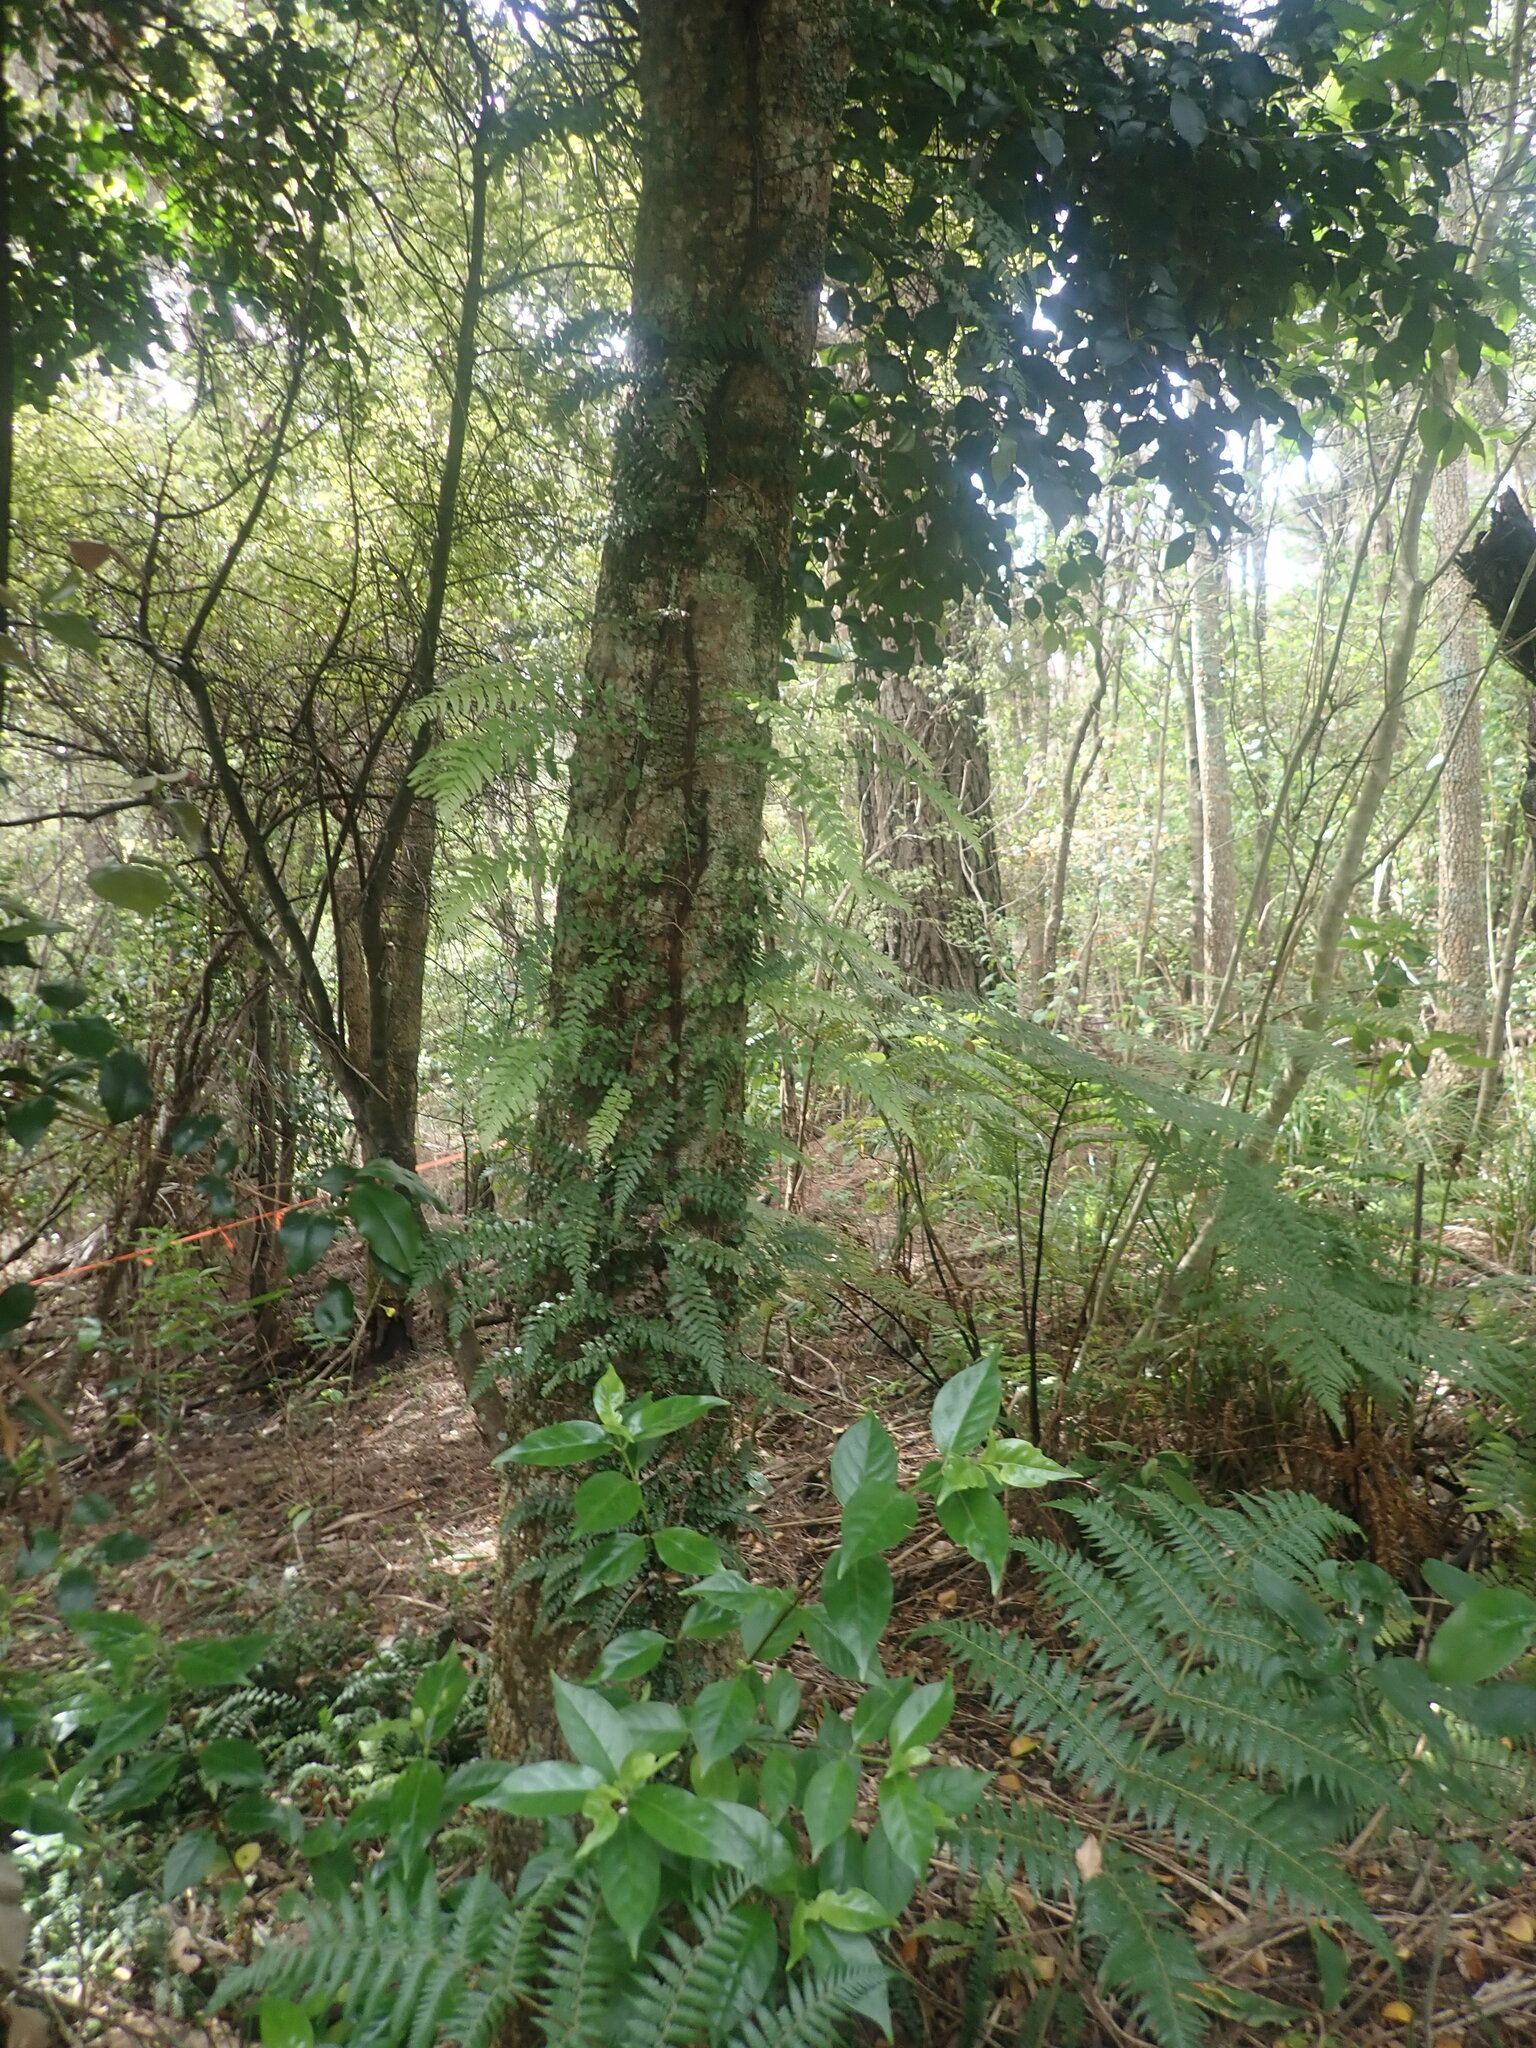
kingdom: Plantae
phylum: Tracheophyta
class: Polypodiopsida
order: Polypodiales
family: Blechnaceae
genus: Icarus
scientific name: Icarus filiformis
